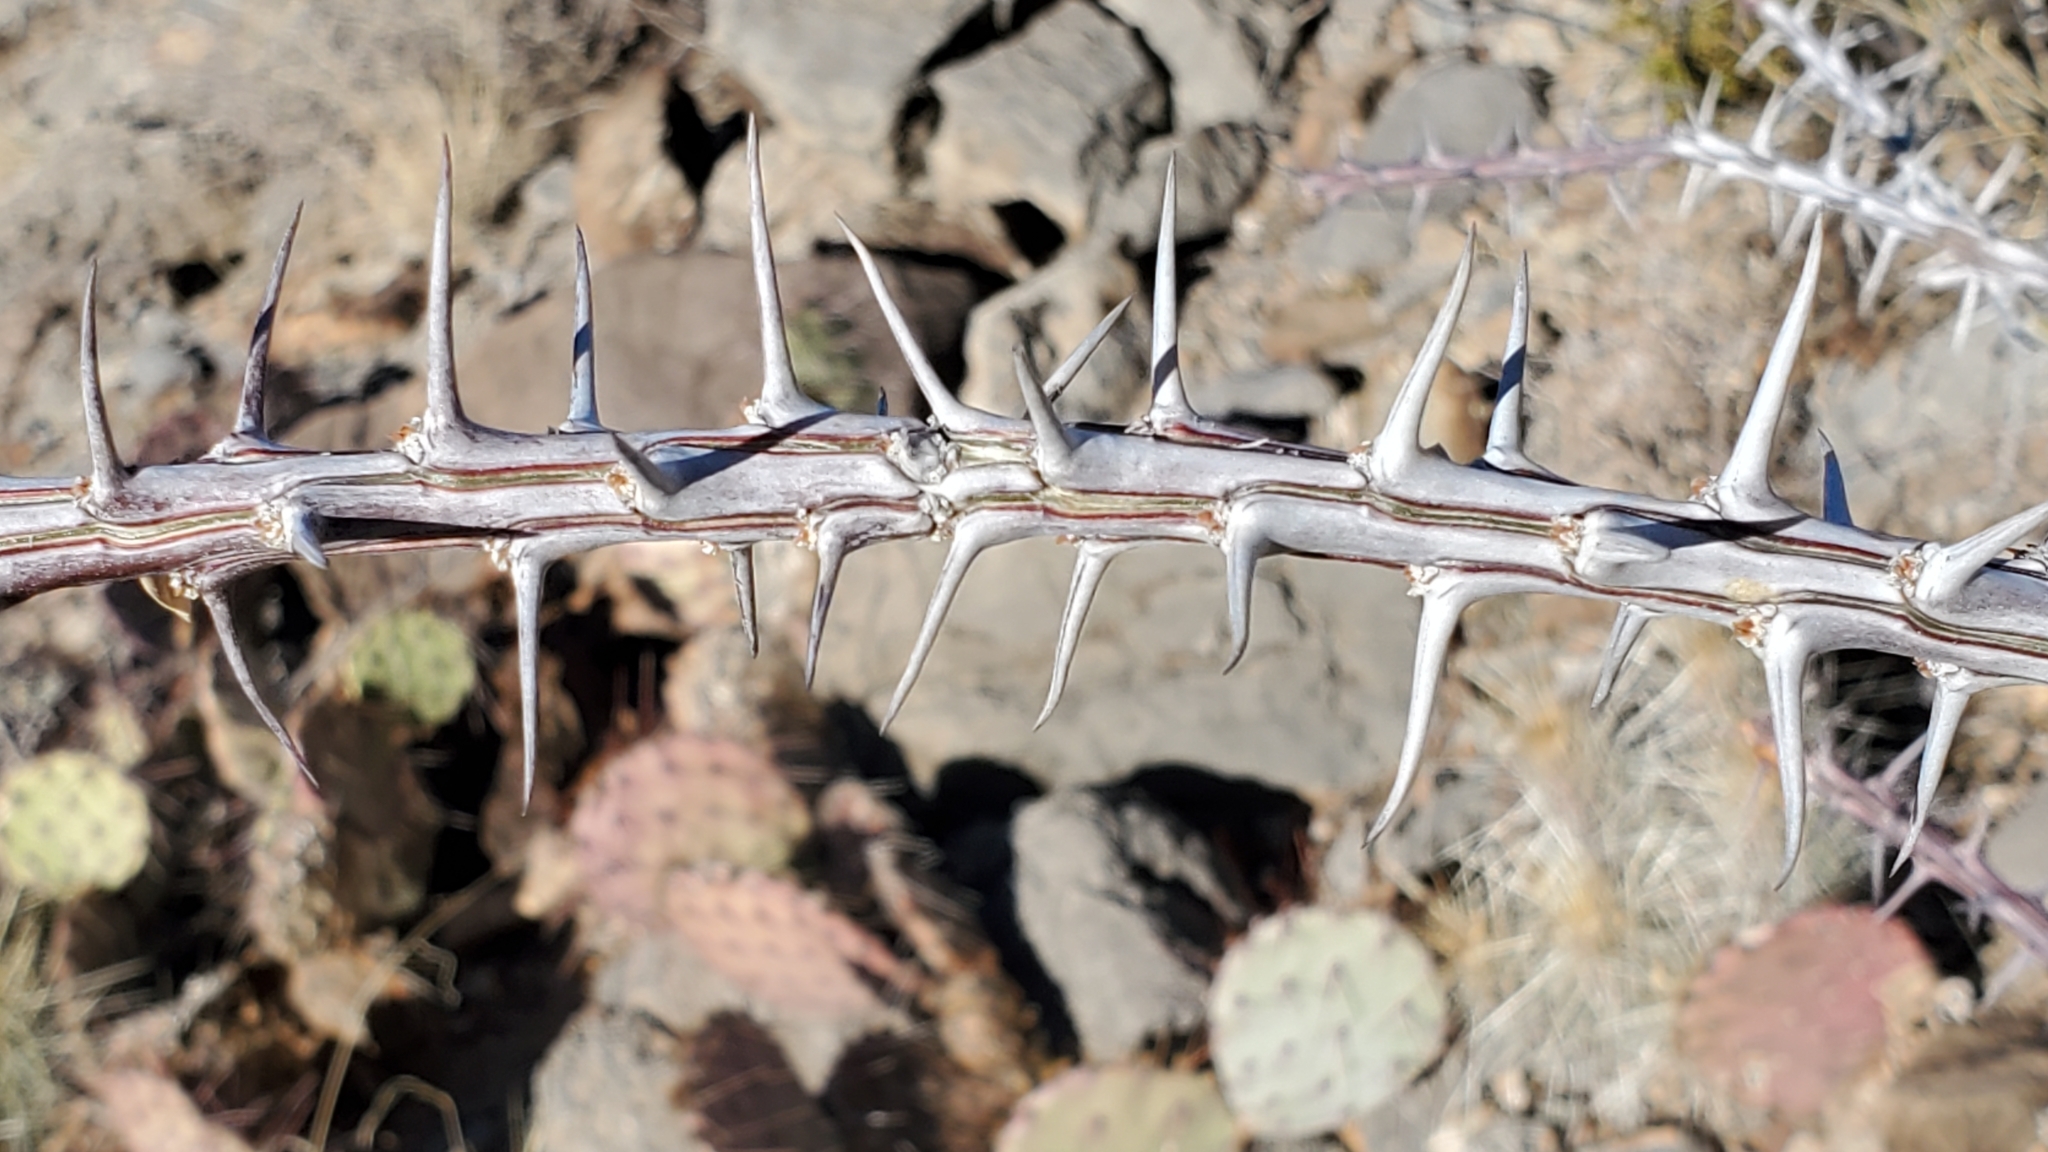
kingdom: Plantae
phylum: Tracheophyta
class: Magnoliopsida
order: Ericales
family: Fouquieriaceae
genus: Fouquieria
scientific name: Fouquieria splendens
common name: Vine-cactus
